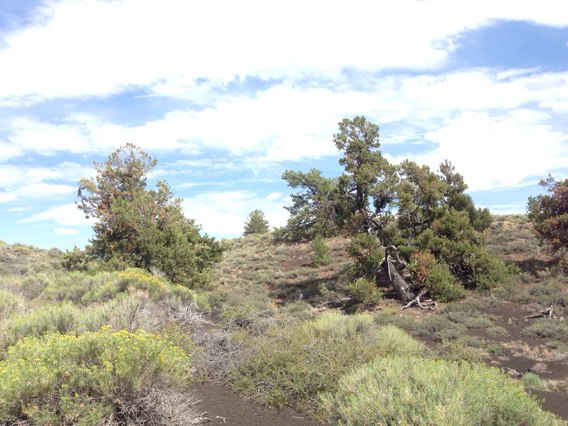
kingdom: Plantae
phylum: Tracheophyta
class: Pinopsida
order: Pinales
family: Pinaceae
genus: Pinus
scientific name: Pinus flexilis
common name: Limber pine
